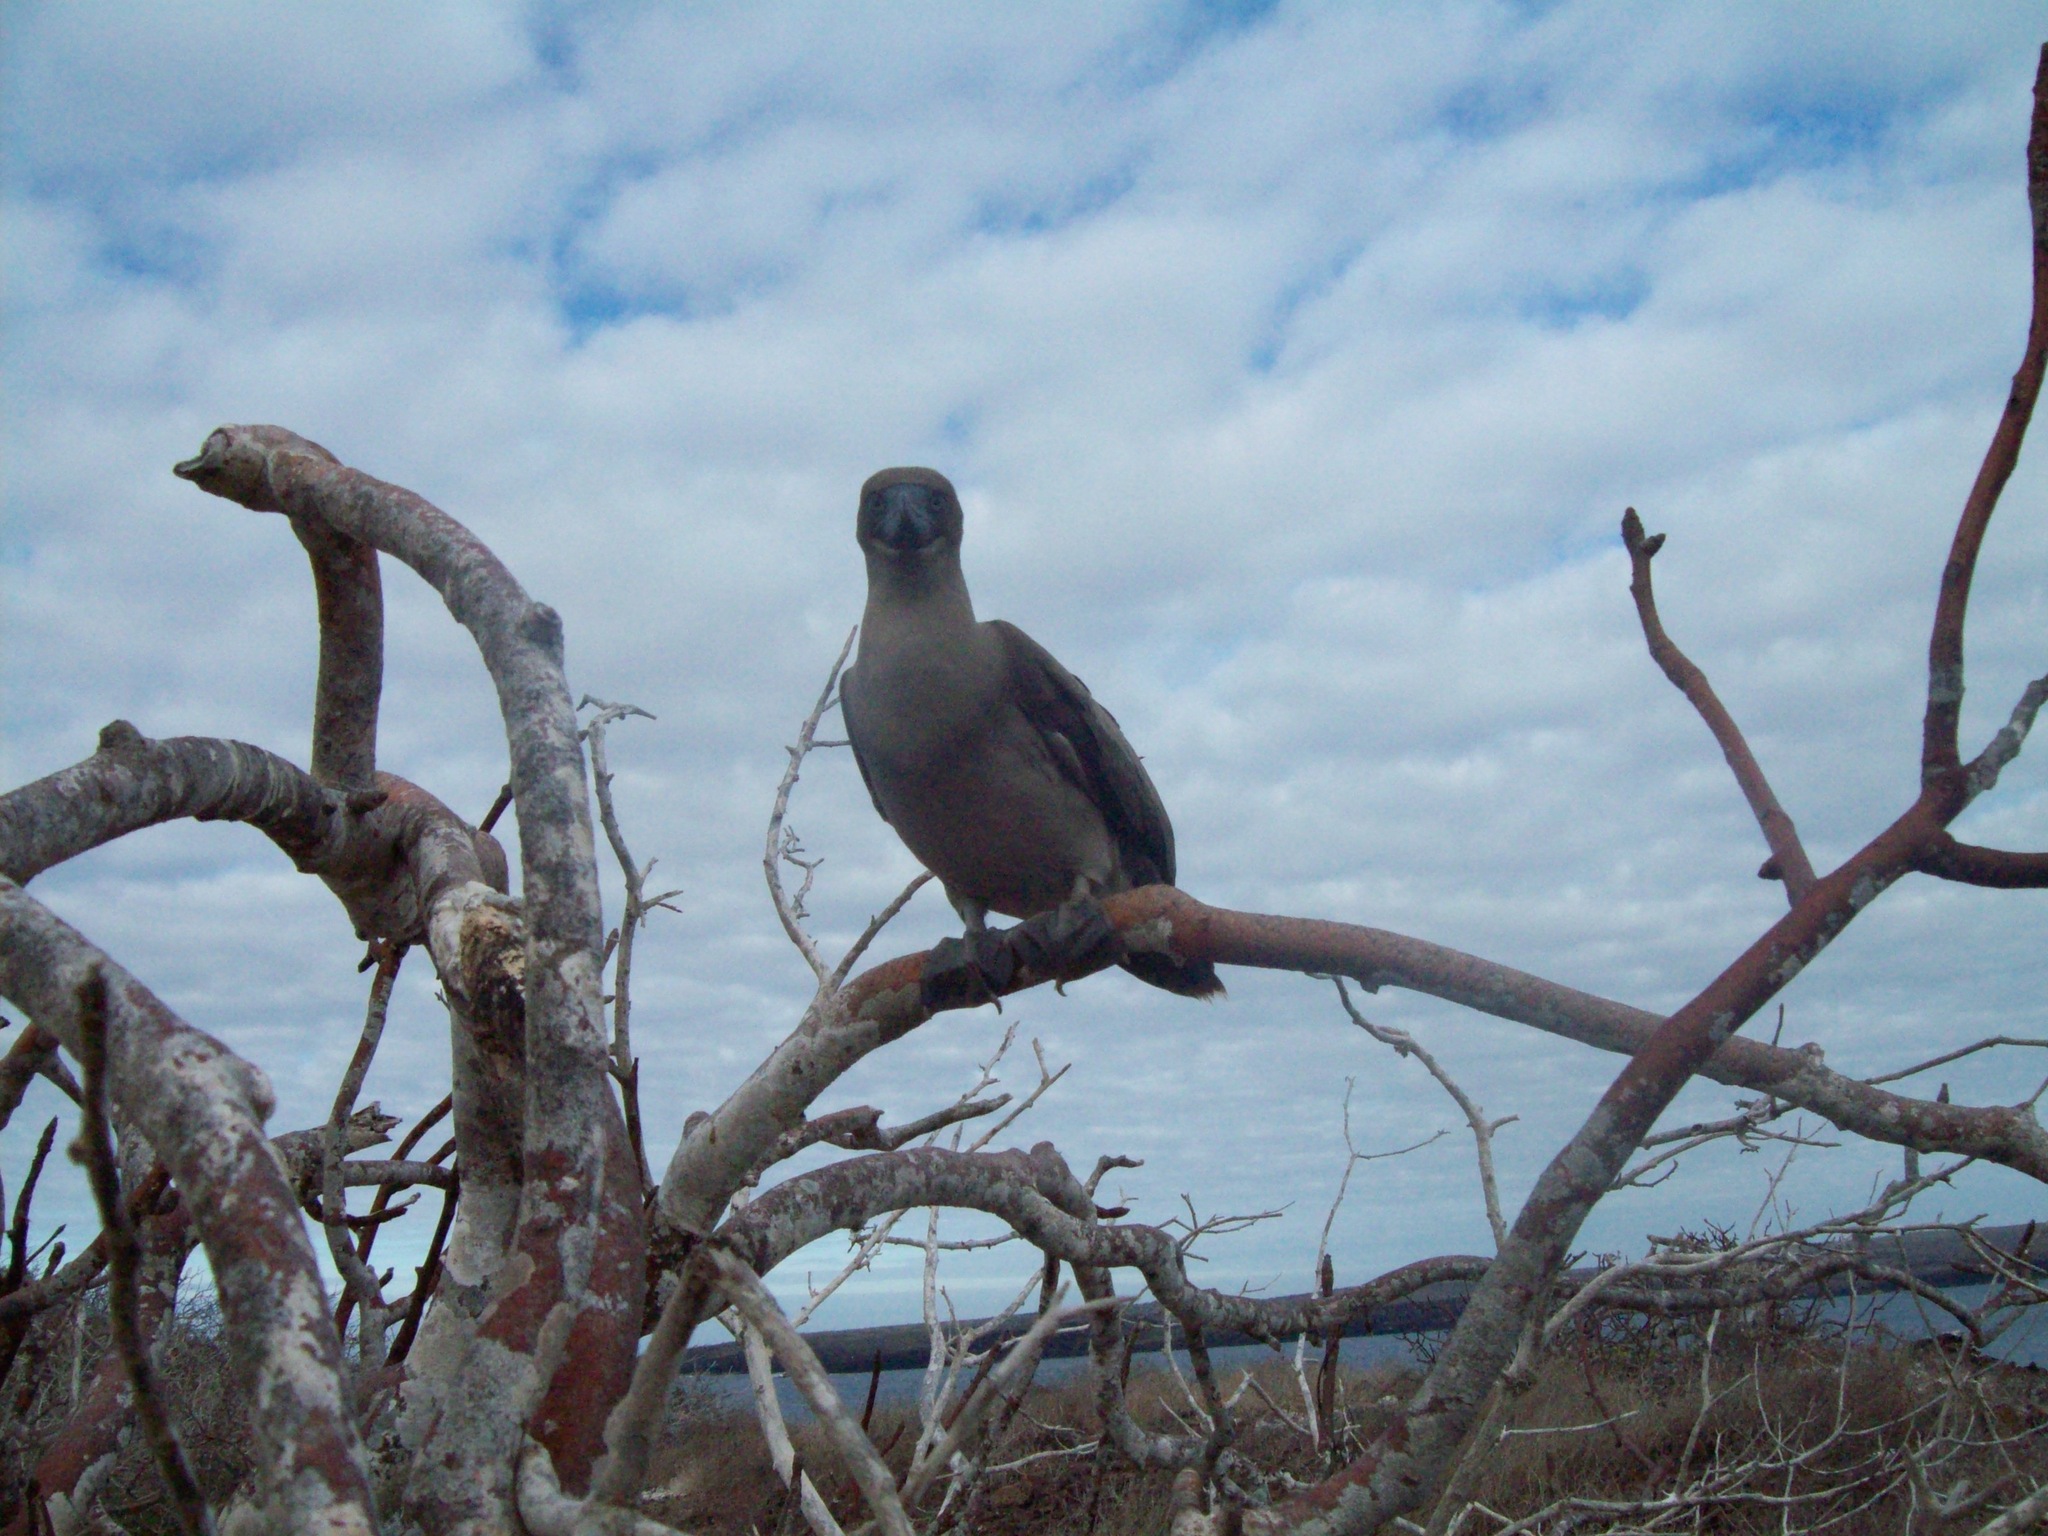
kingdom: Animalia
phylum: Chordata
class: Aves
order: Suliformes
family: Sulidae
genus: Sula
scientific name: Sula sula
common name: Red-footed booby
